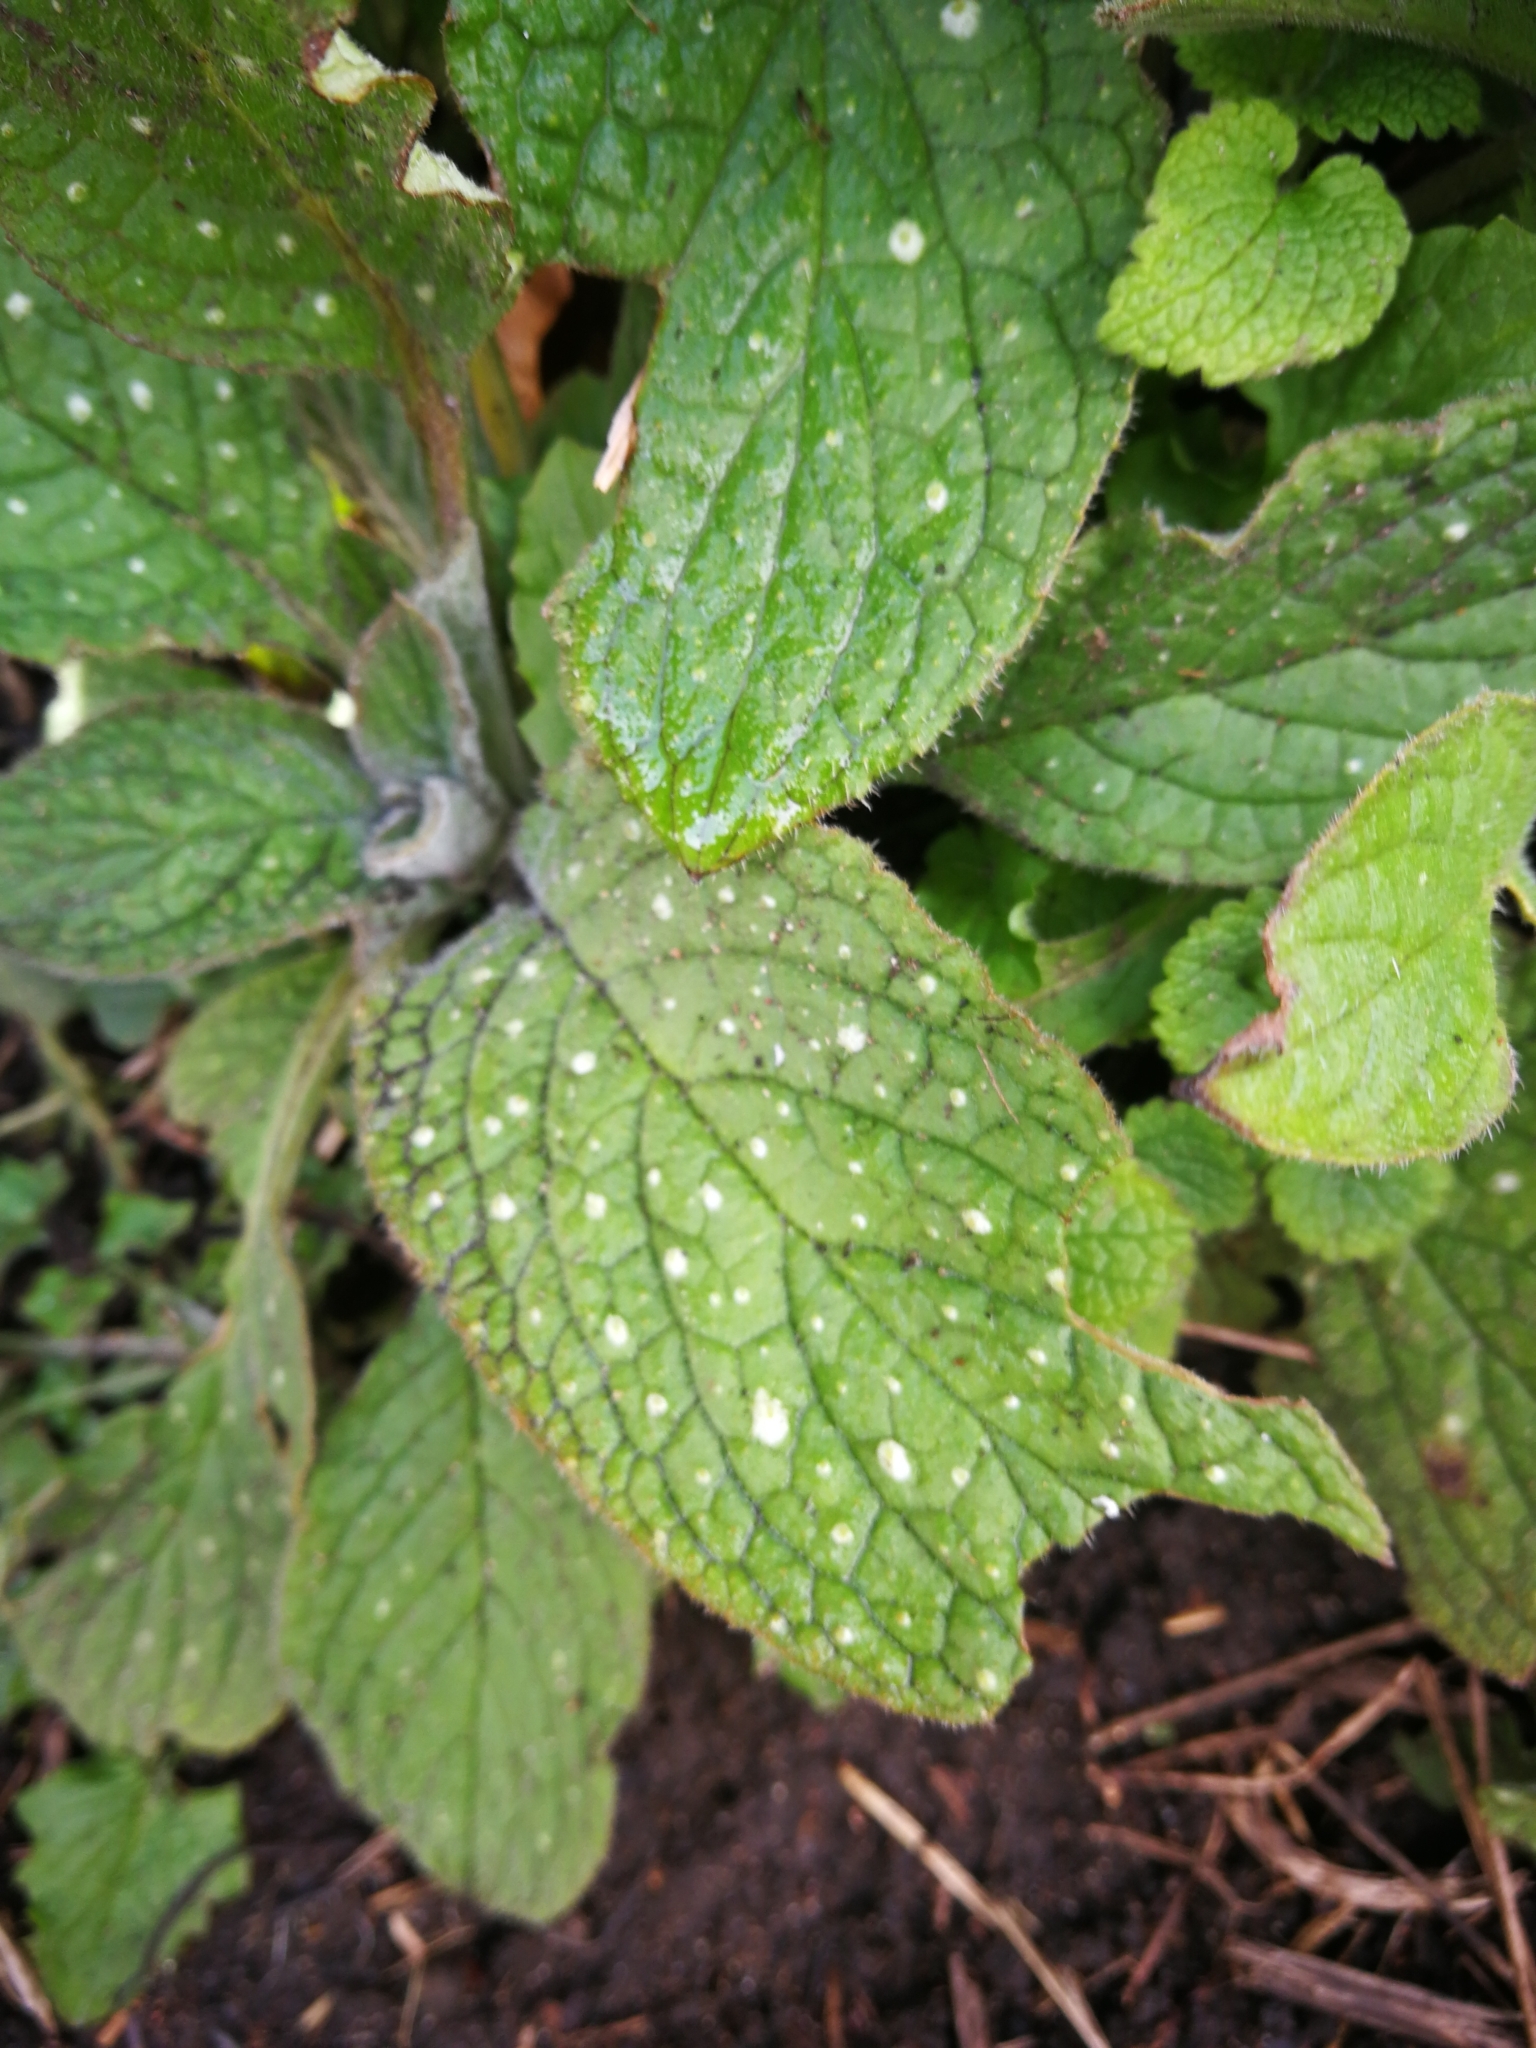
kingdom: Plantae
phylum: Tracheophyta
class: Magnoliopsida
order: Boraginales
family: Boraginaceae
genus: Pentaglottis
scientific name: Pentaglottis sempervirens
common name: Green alkanet
